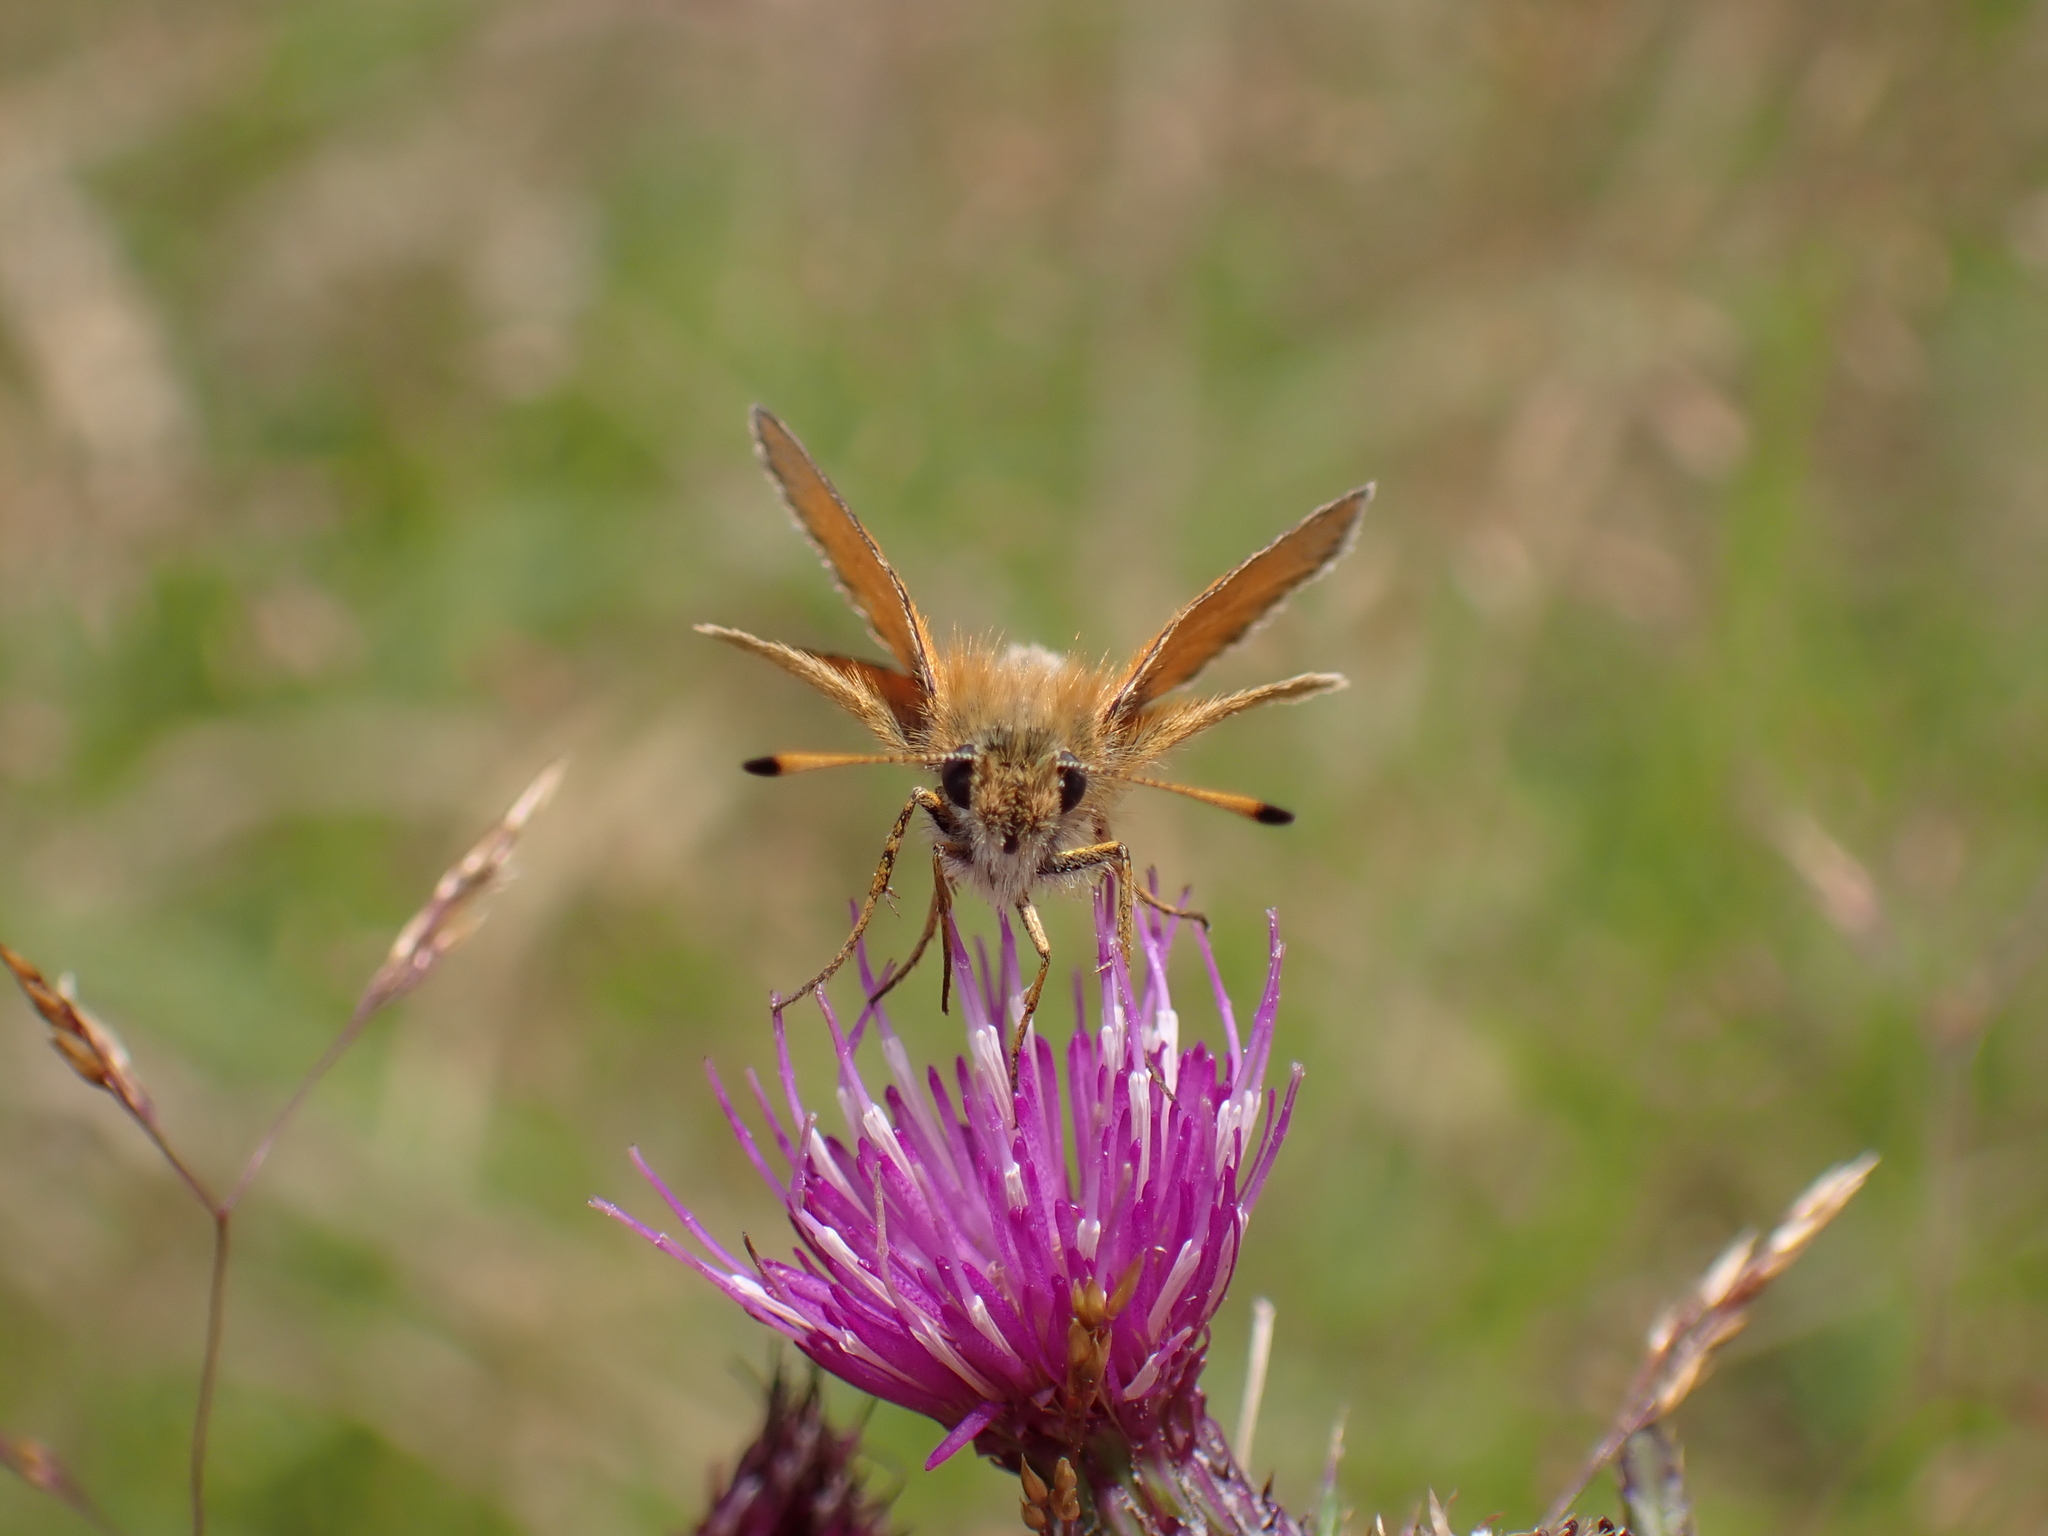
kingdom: Animalia
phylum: Arthropoda
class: Insecta
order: Lepidoptera
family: Hesperiidae
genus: Thymelicus
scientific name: Thymelicus lineola
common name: Essex skipper
